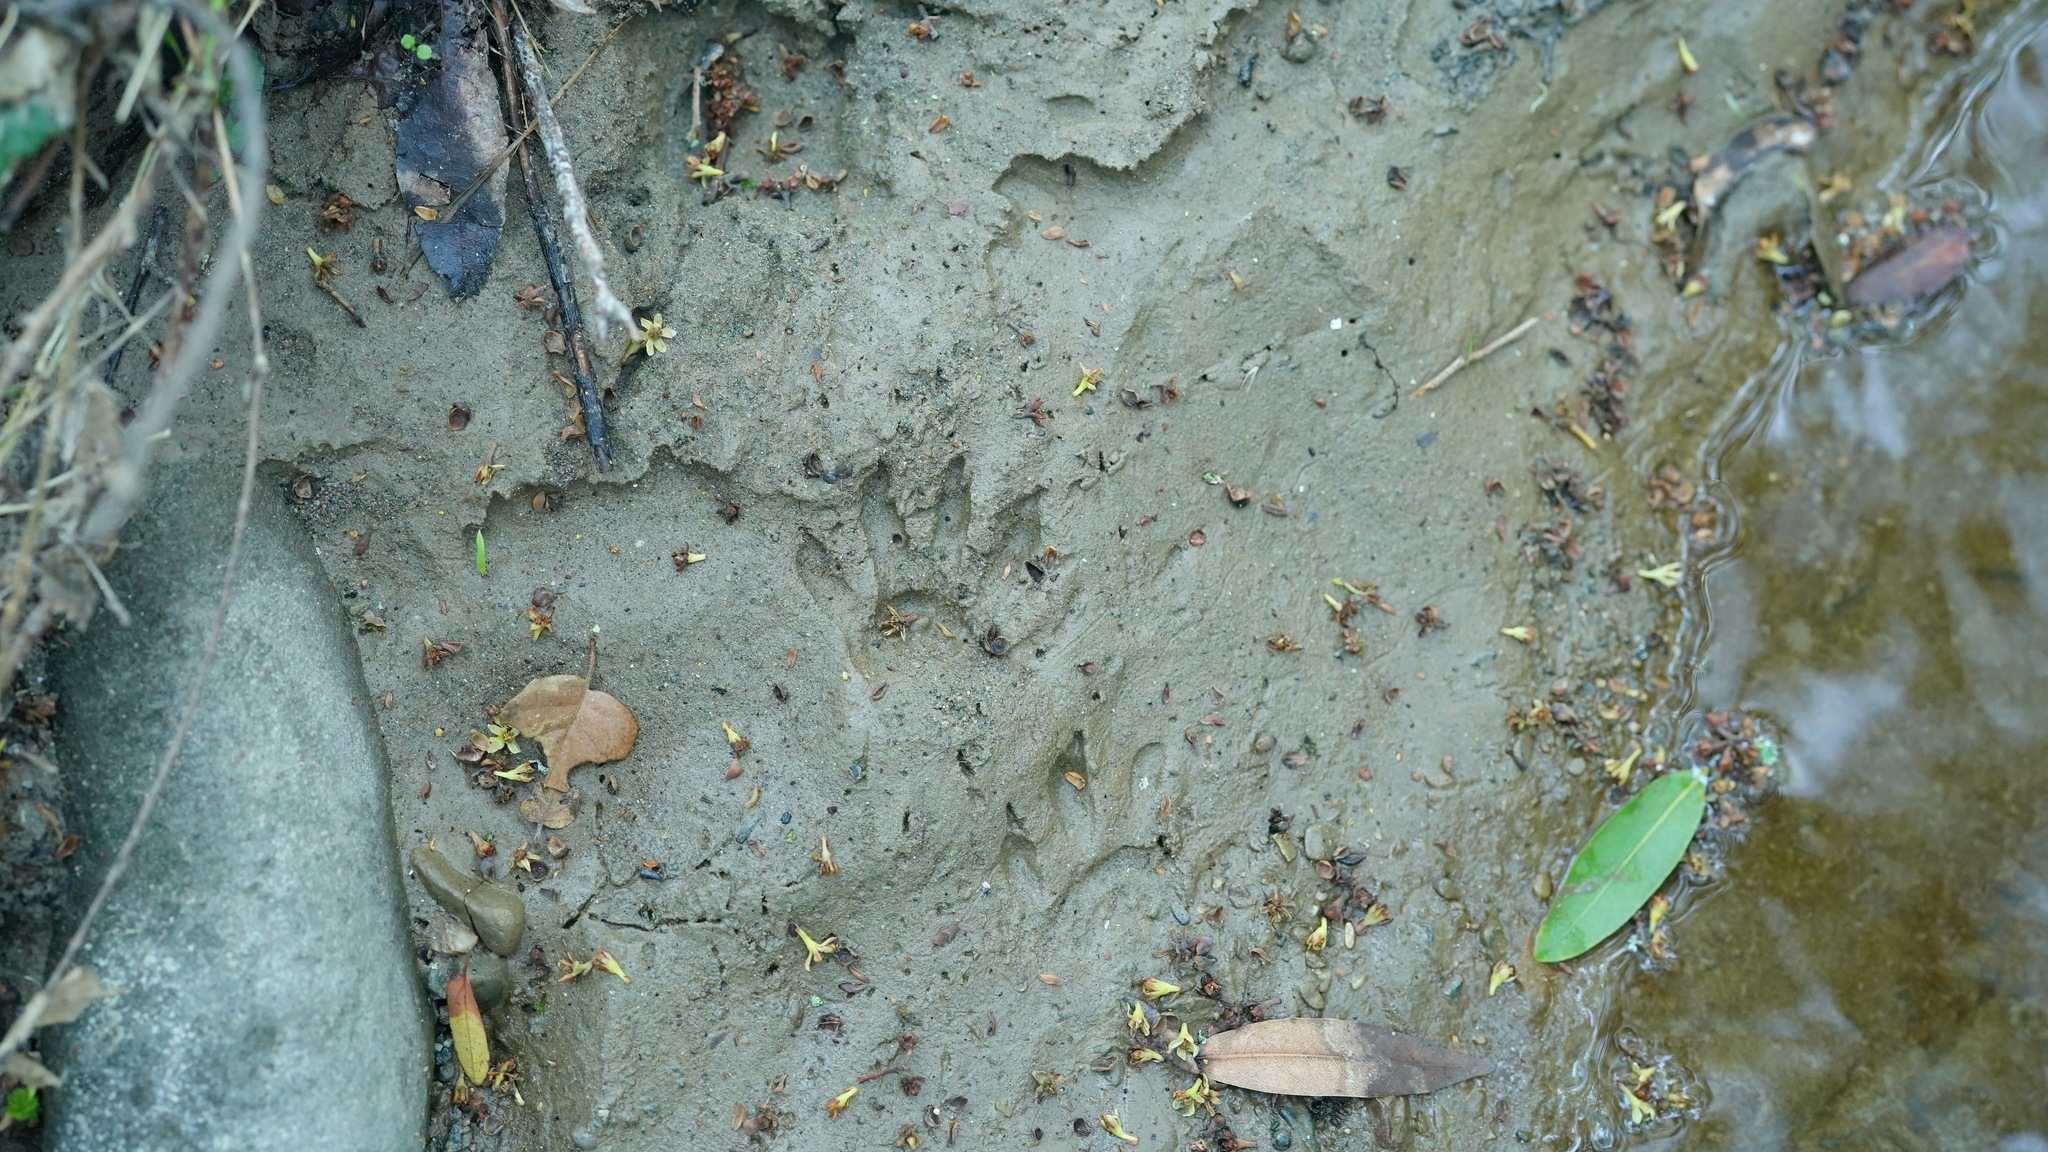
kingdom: Animalia
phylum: Chordata
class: Mammalia
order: Carnivora
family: Procyonidae
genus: Procyon
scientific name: Procyon lotor
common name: Raccoon
